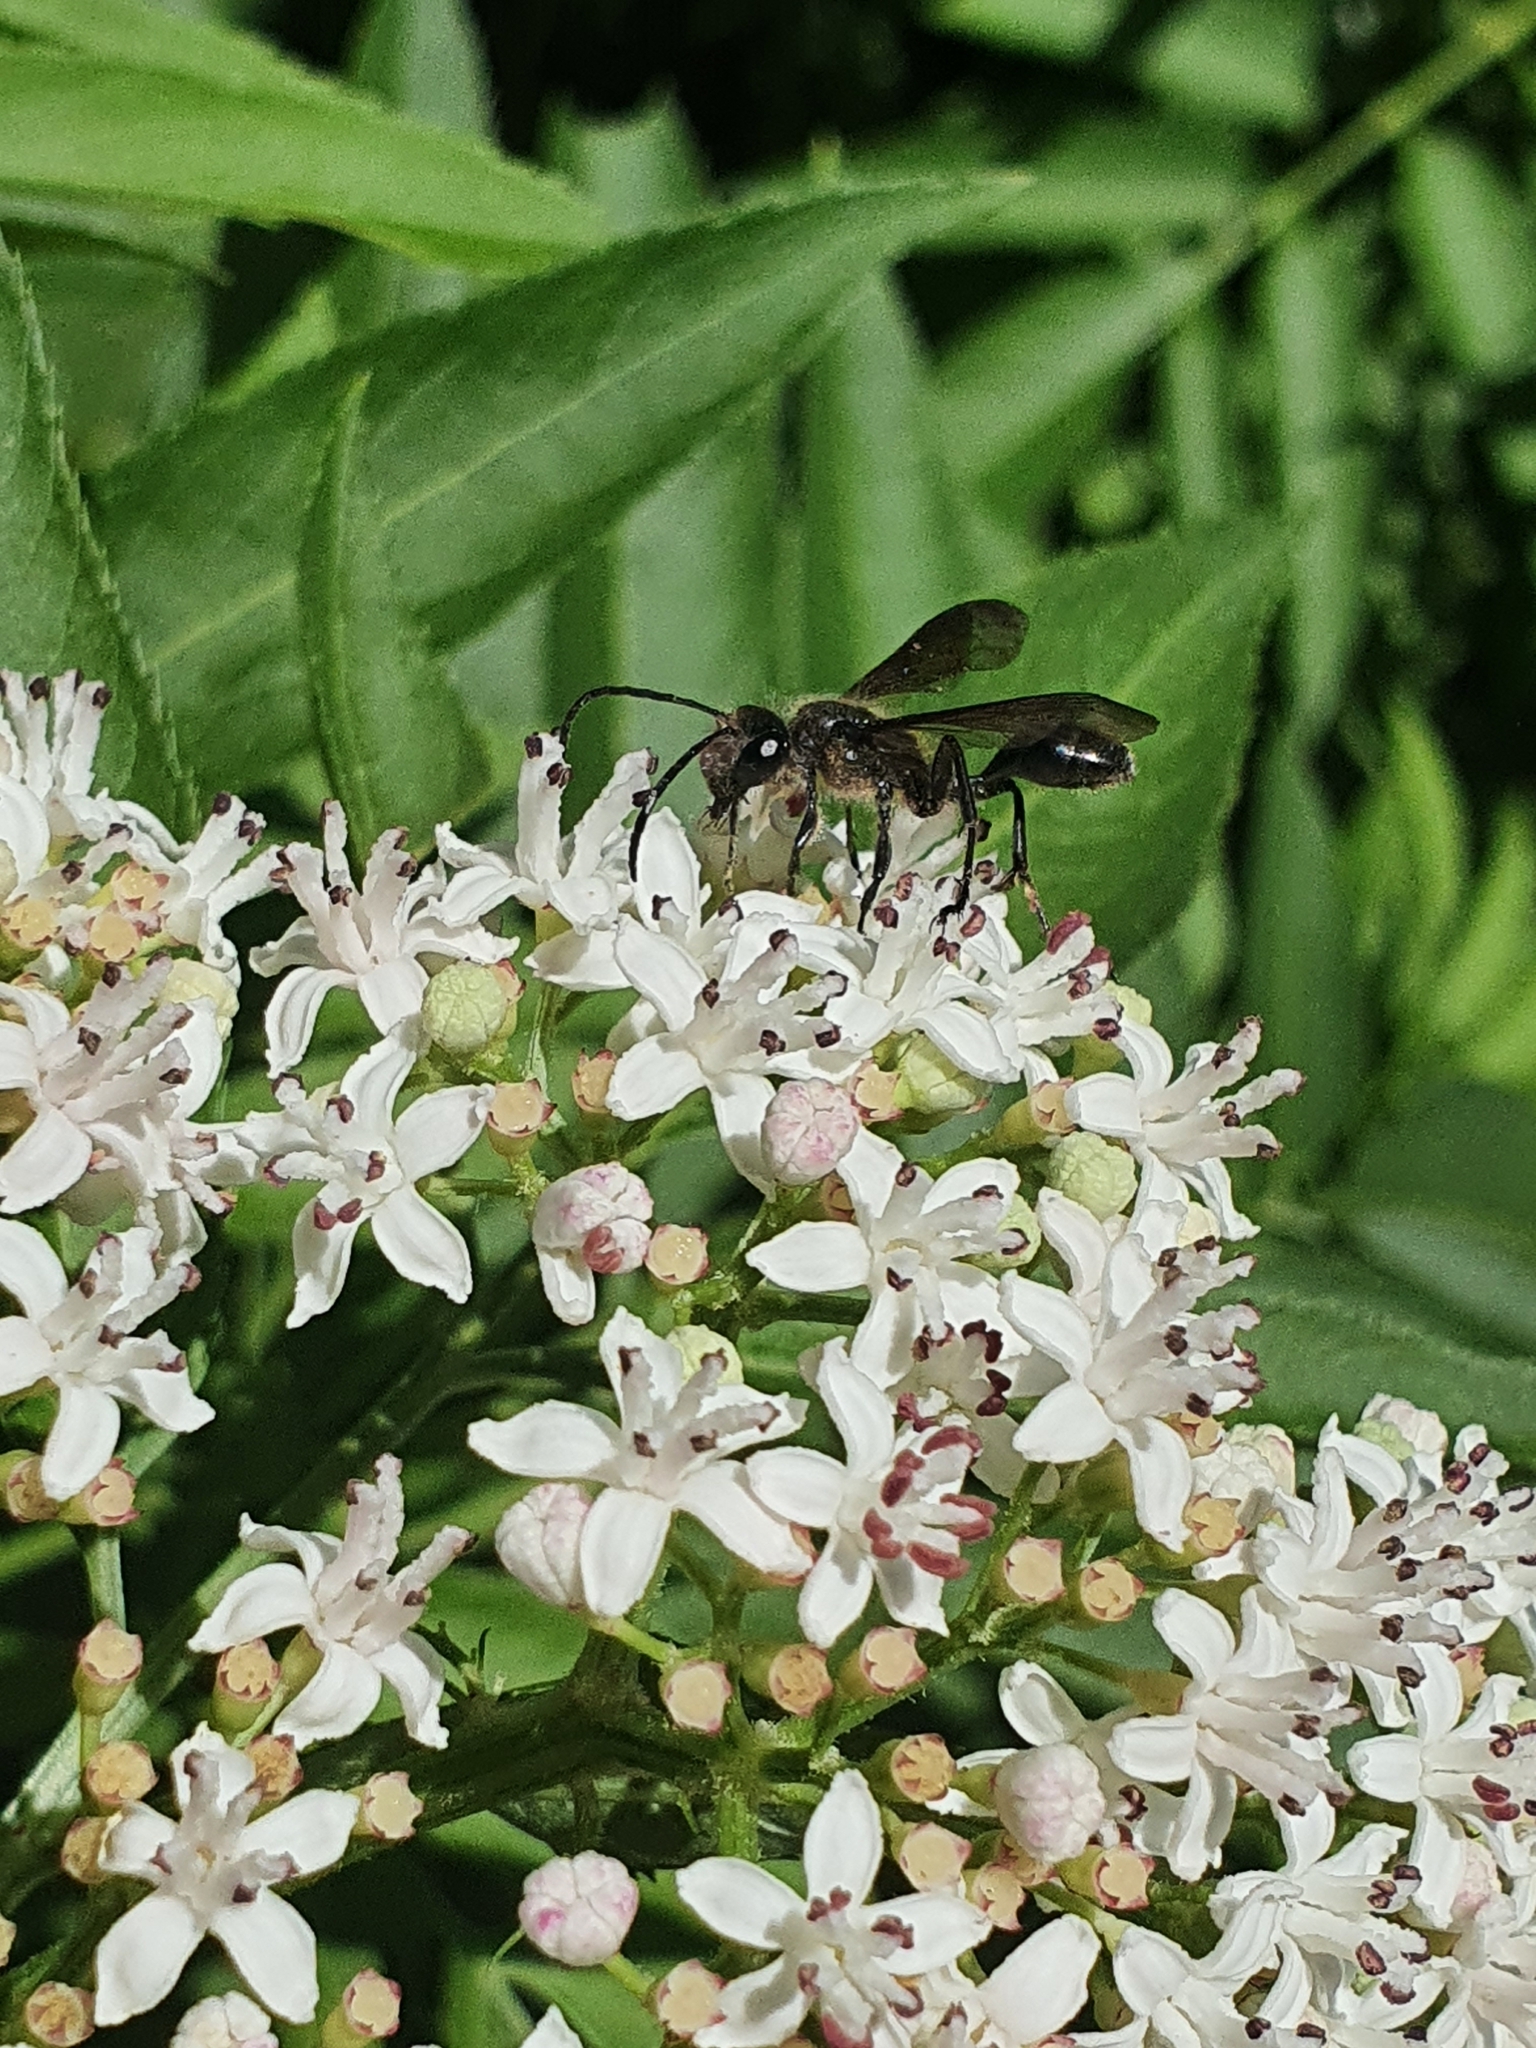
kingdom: Animalia
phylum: Arthropoda
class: Insecta
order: Hymenoptera
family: Sphecidae
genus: Isodontia
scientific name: Isodontia mexicana
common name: Mud dauber
